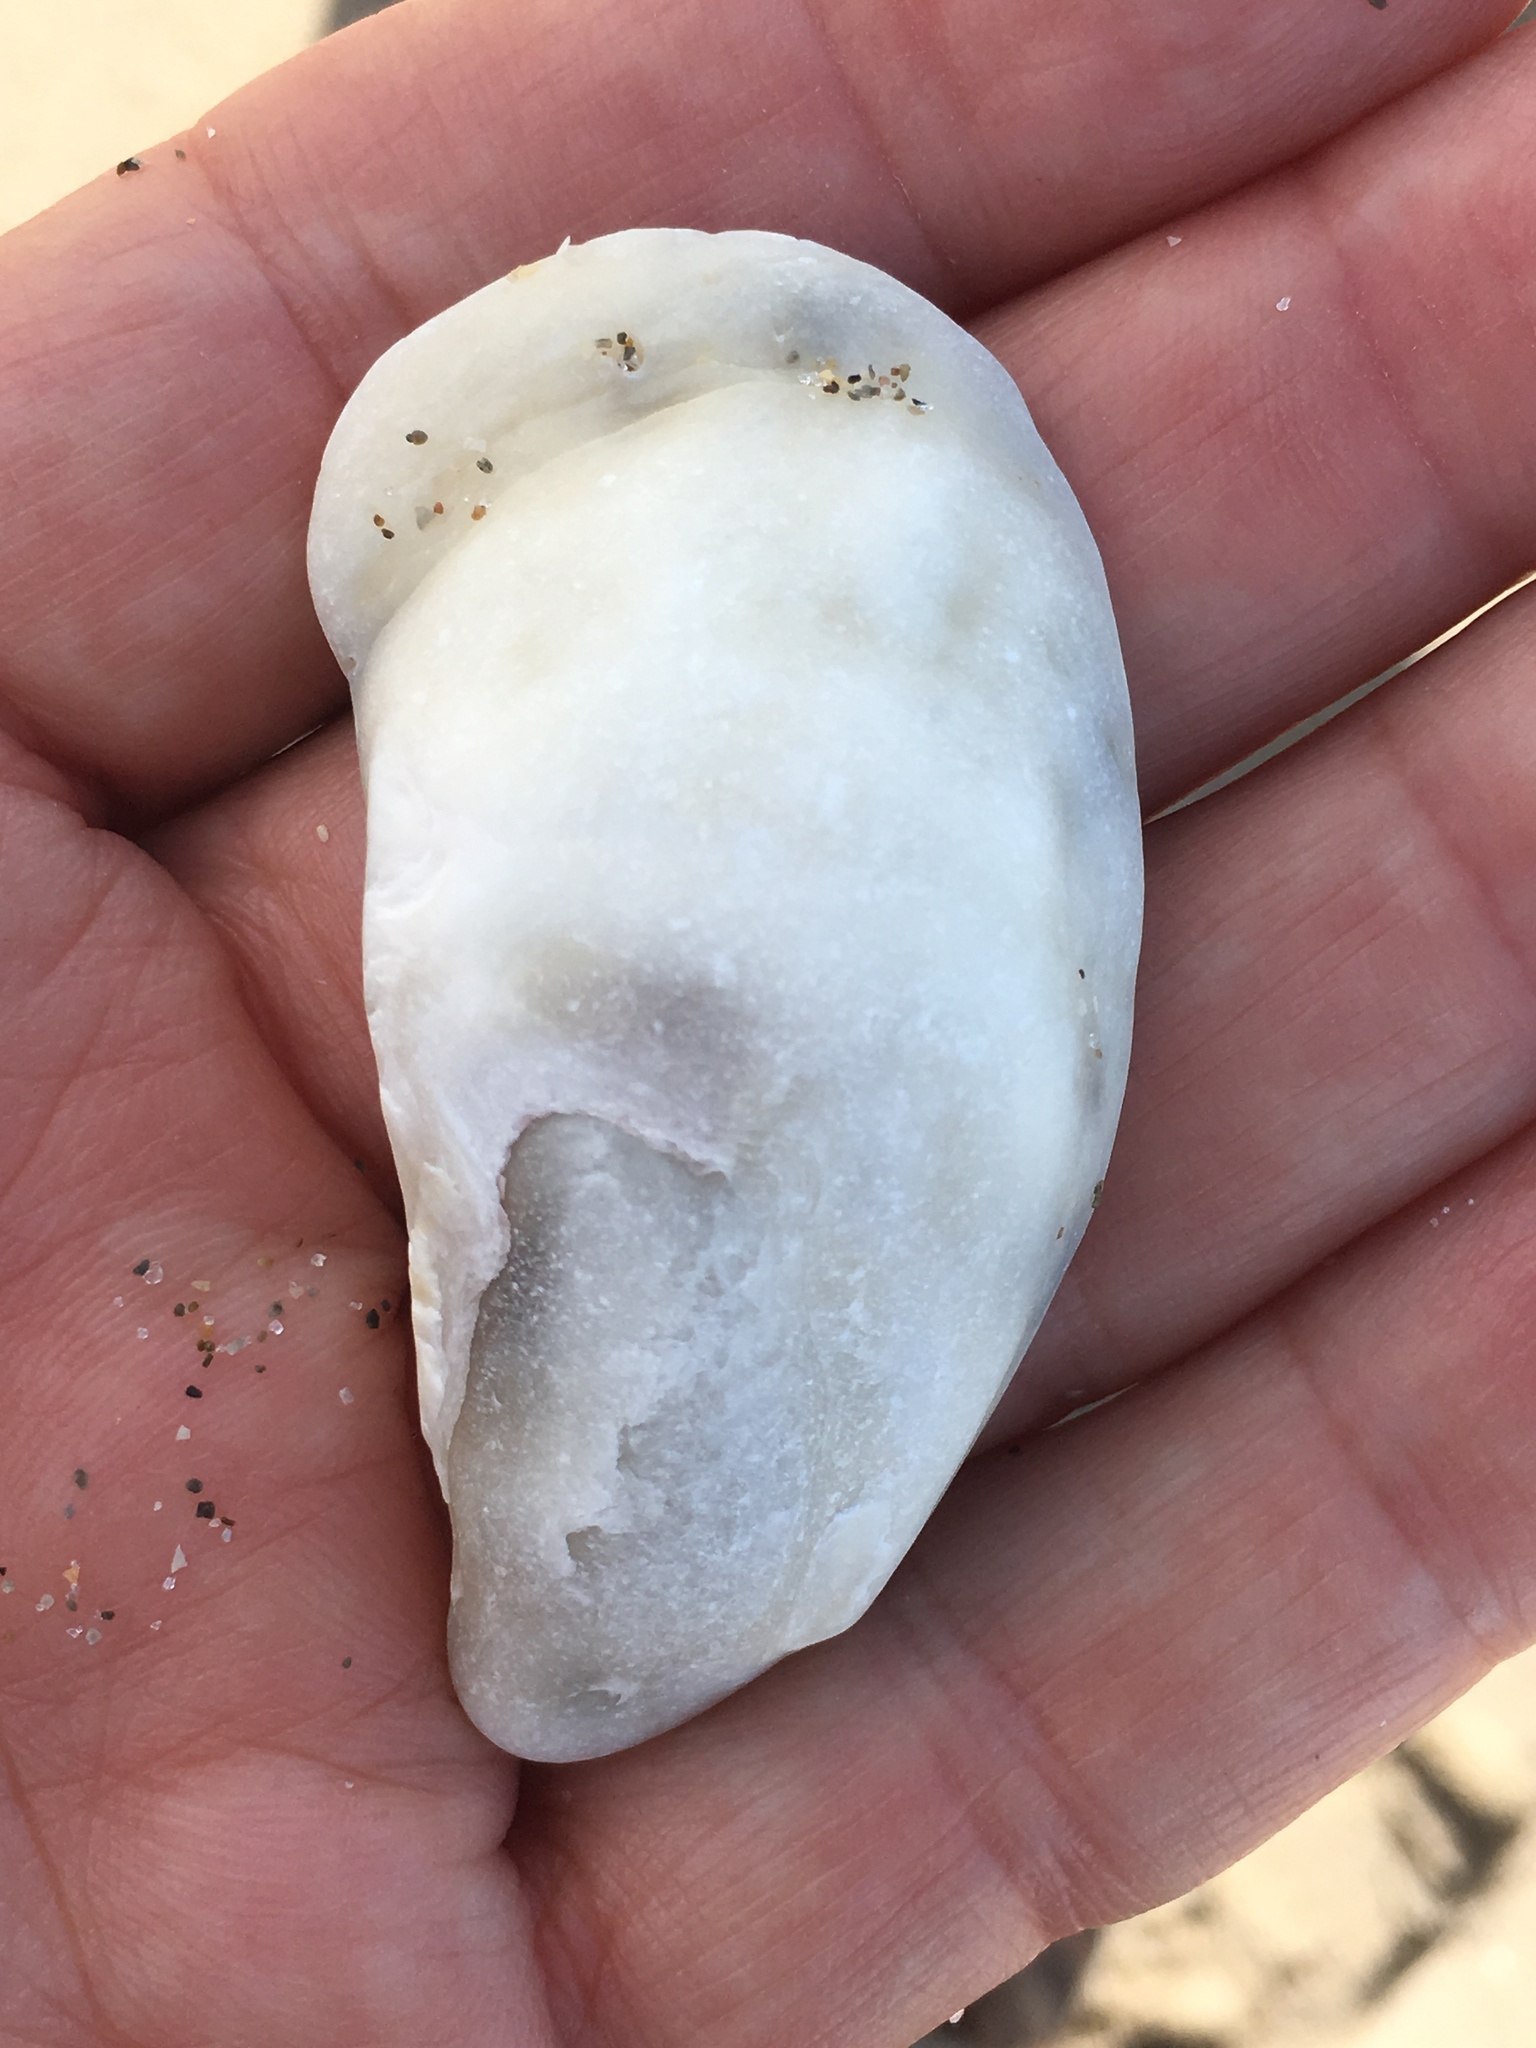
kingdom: Animalia
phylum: Mollusca
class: Bivalvia
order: Ostreida
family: Ostreidae
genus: Crassostrea
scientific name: Crassostrea virginica
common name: American oyster
